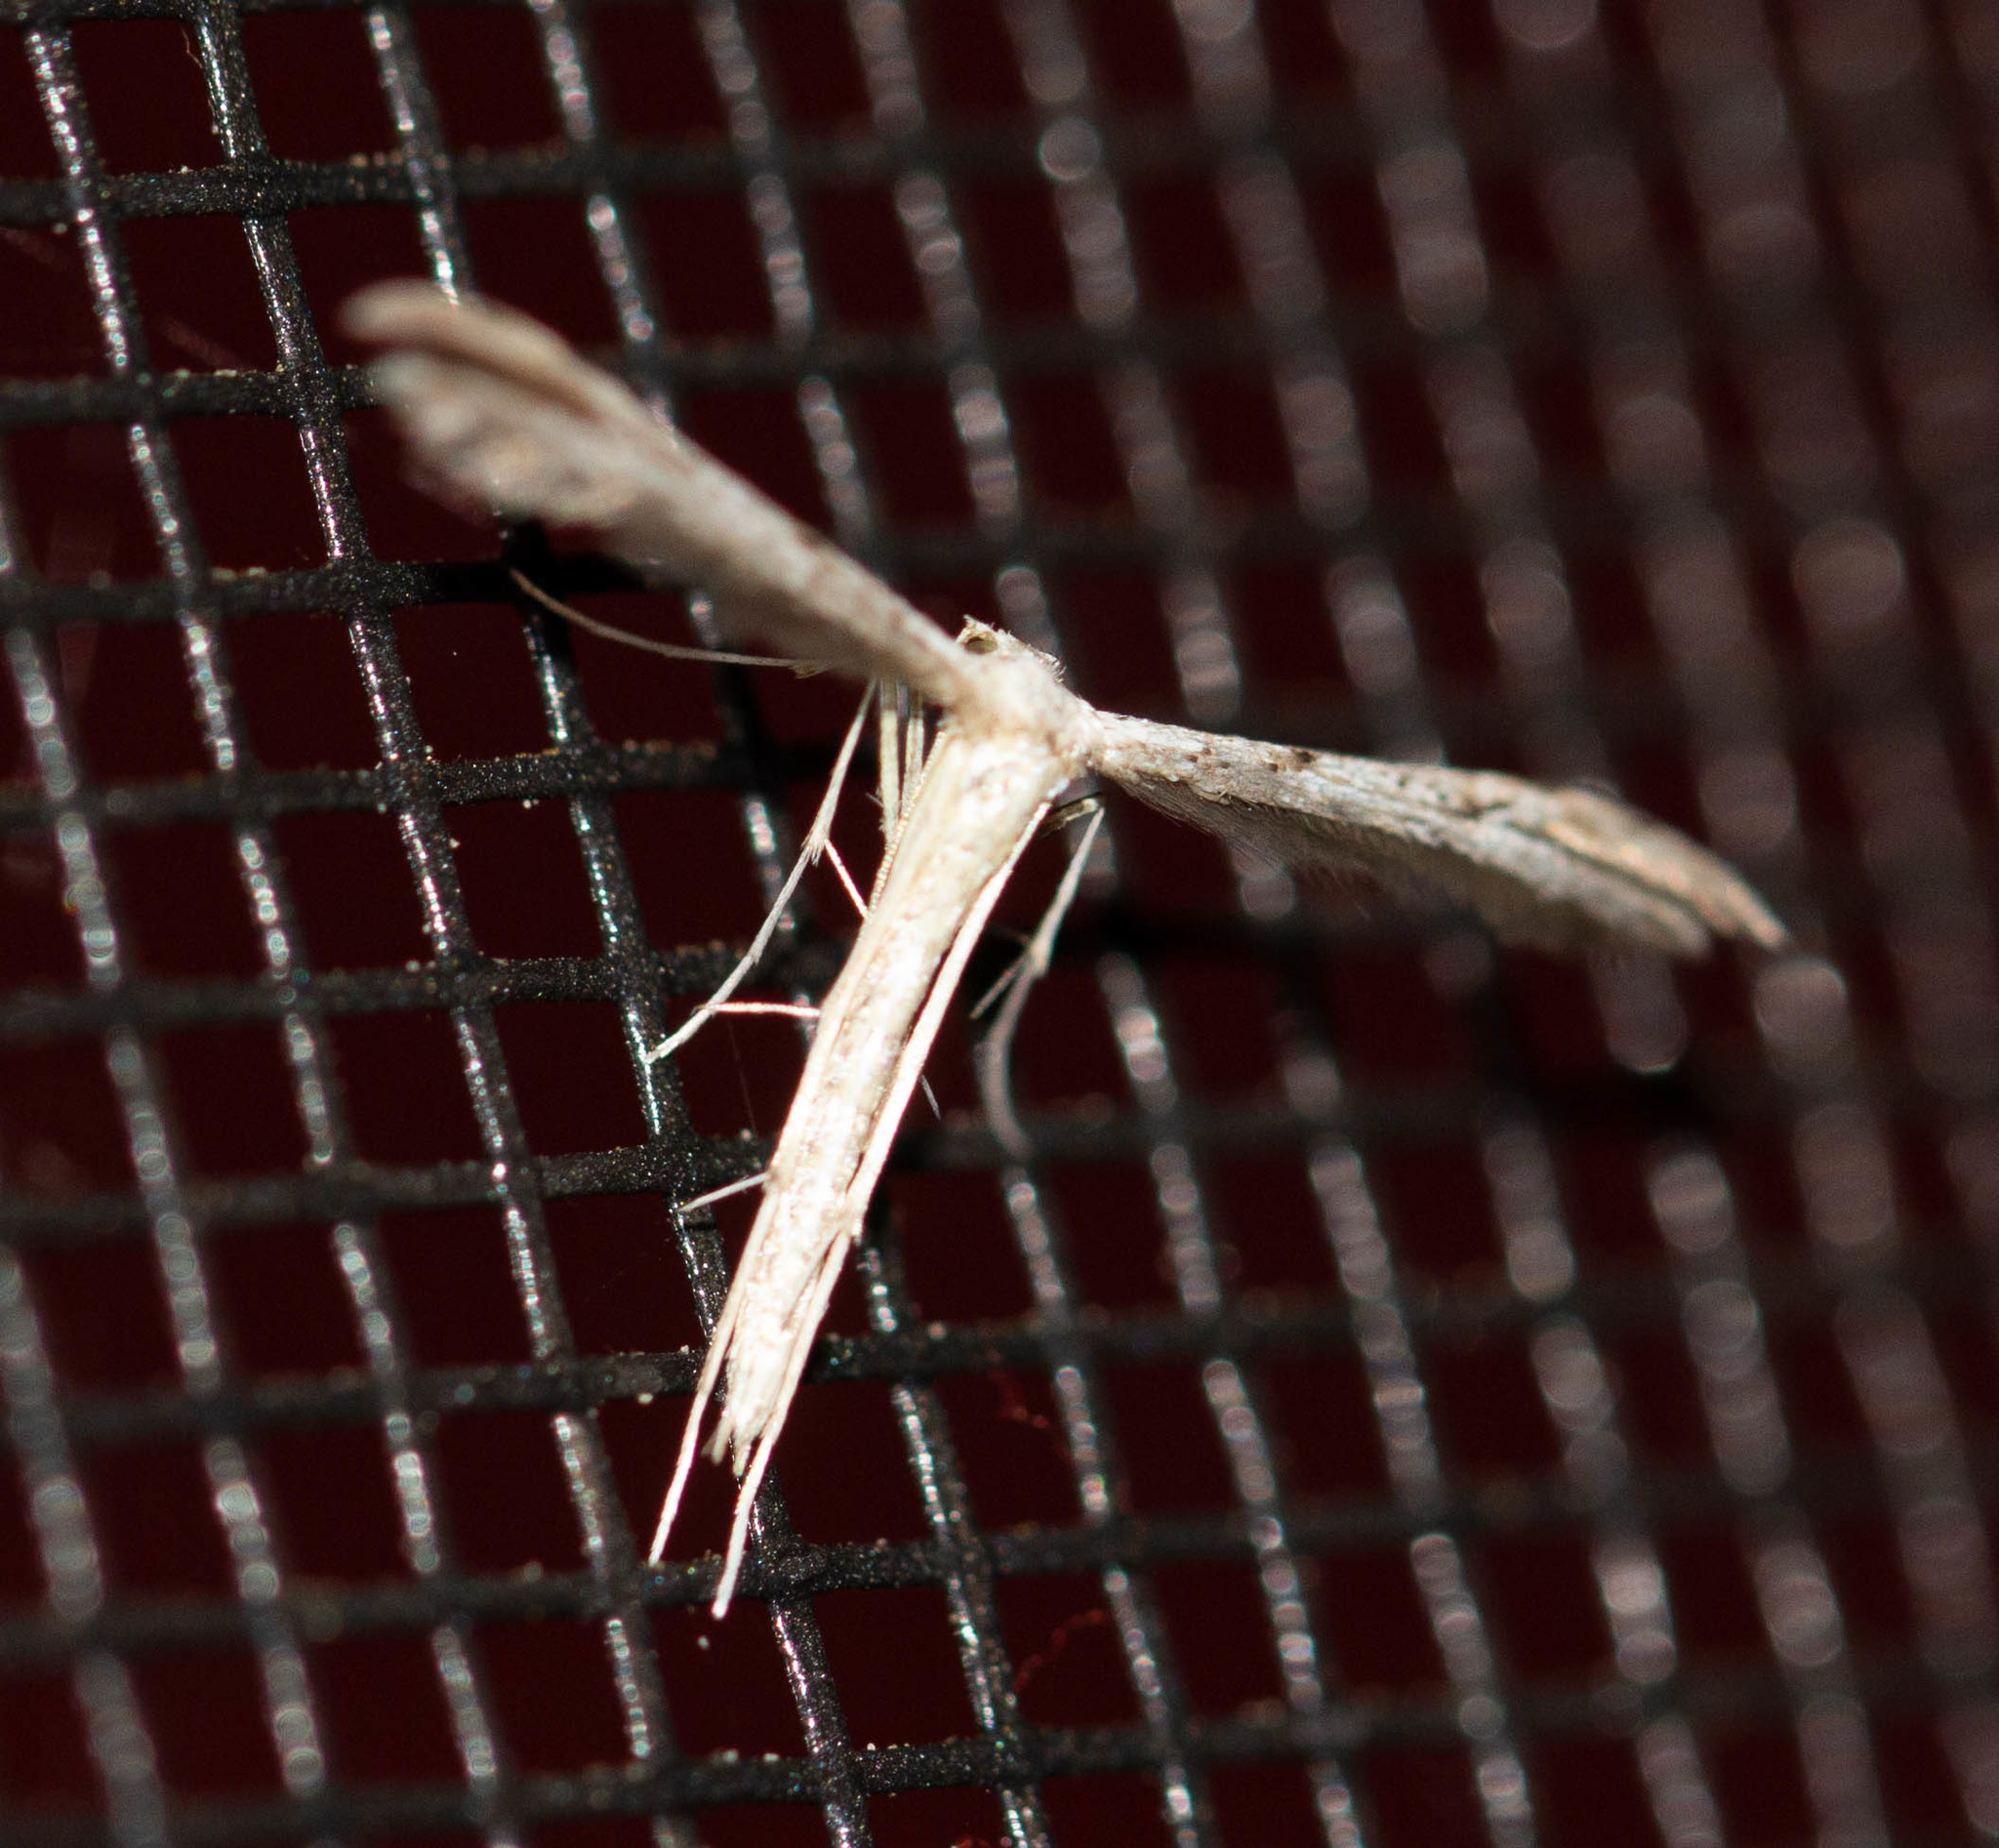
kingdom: Animalia
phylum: Arthropoda
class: Insecta
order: Lepidoptera
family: Pterophoridae
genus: Pselnophorus
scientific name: Pselnophorus belfragei
